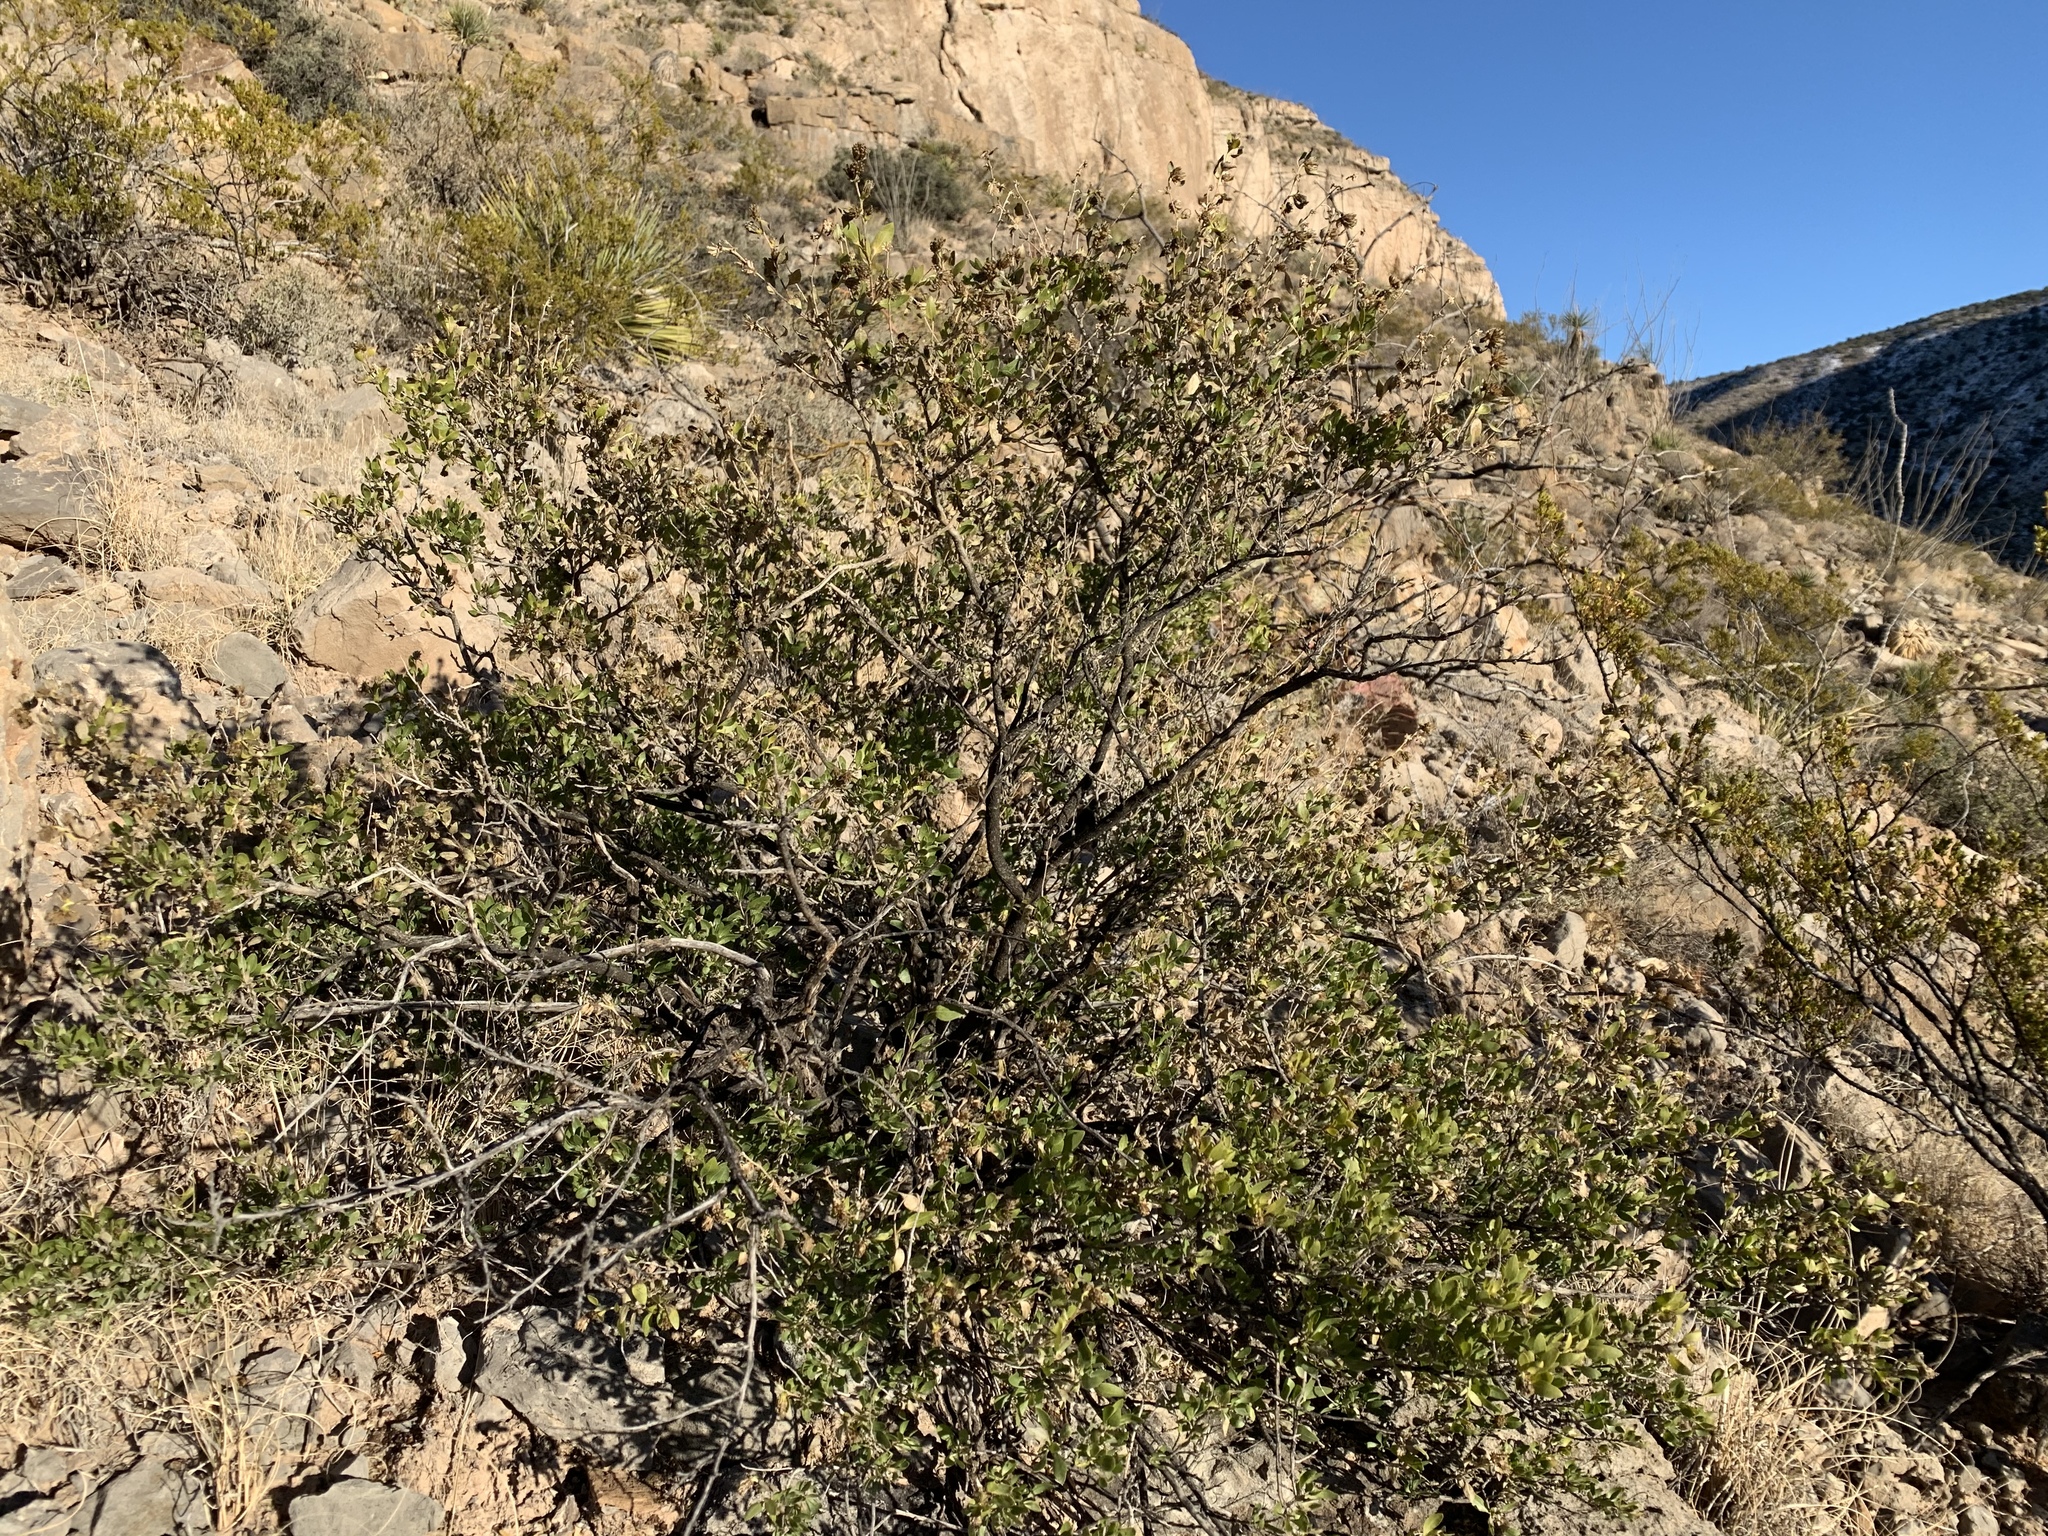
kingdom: Plantae
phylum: Tracheophyta
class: Magnoliopsida
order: Asterales
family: Asteraceae
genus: Flourensia
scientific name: Flourensia cernua
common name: Varnishbush
